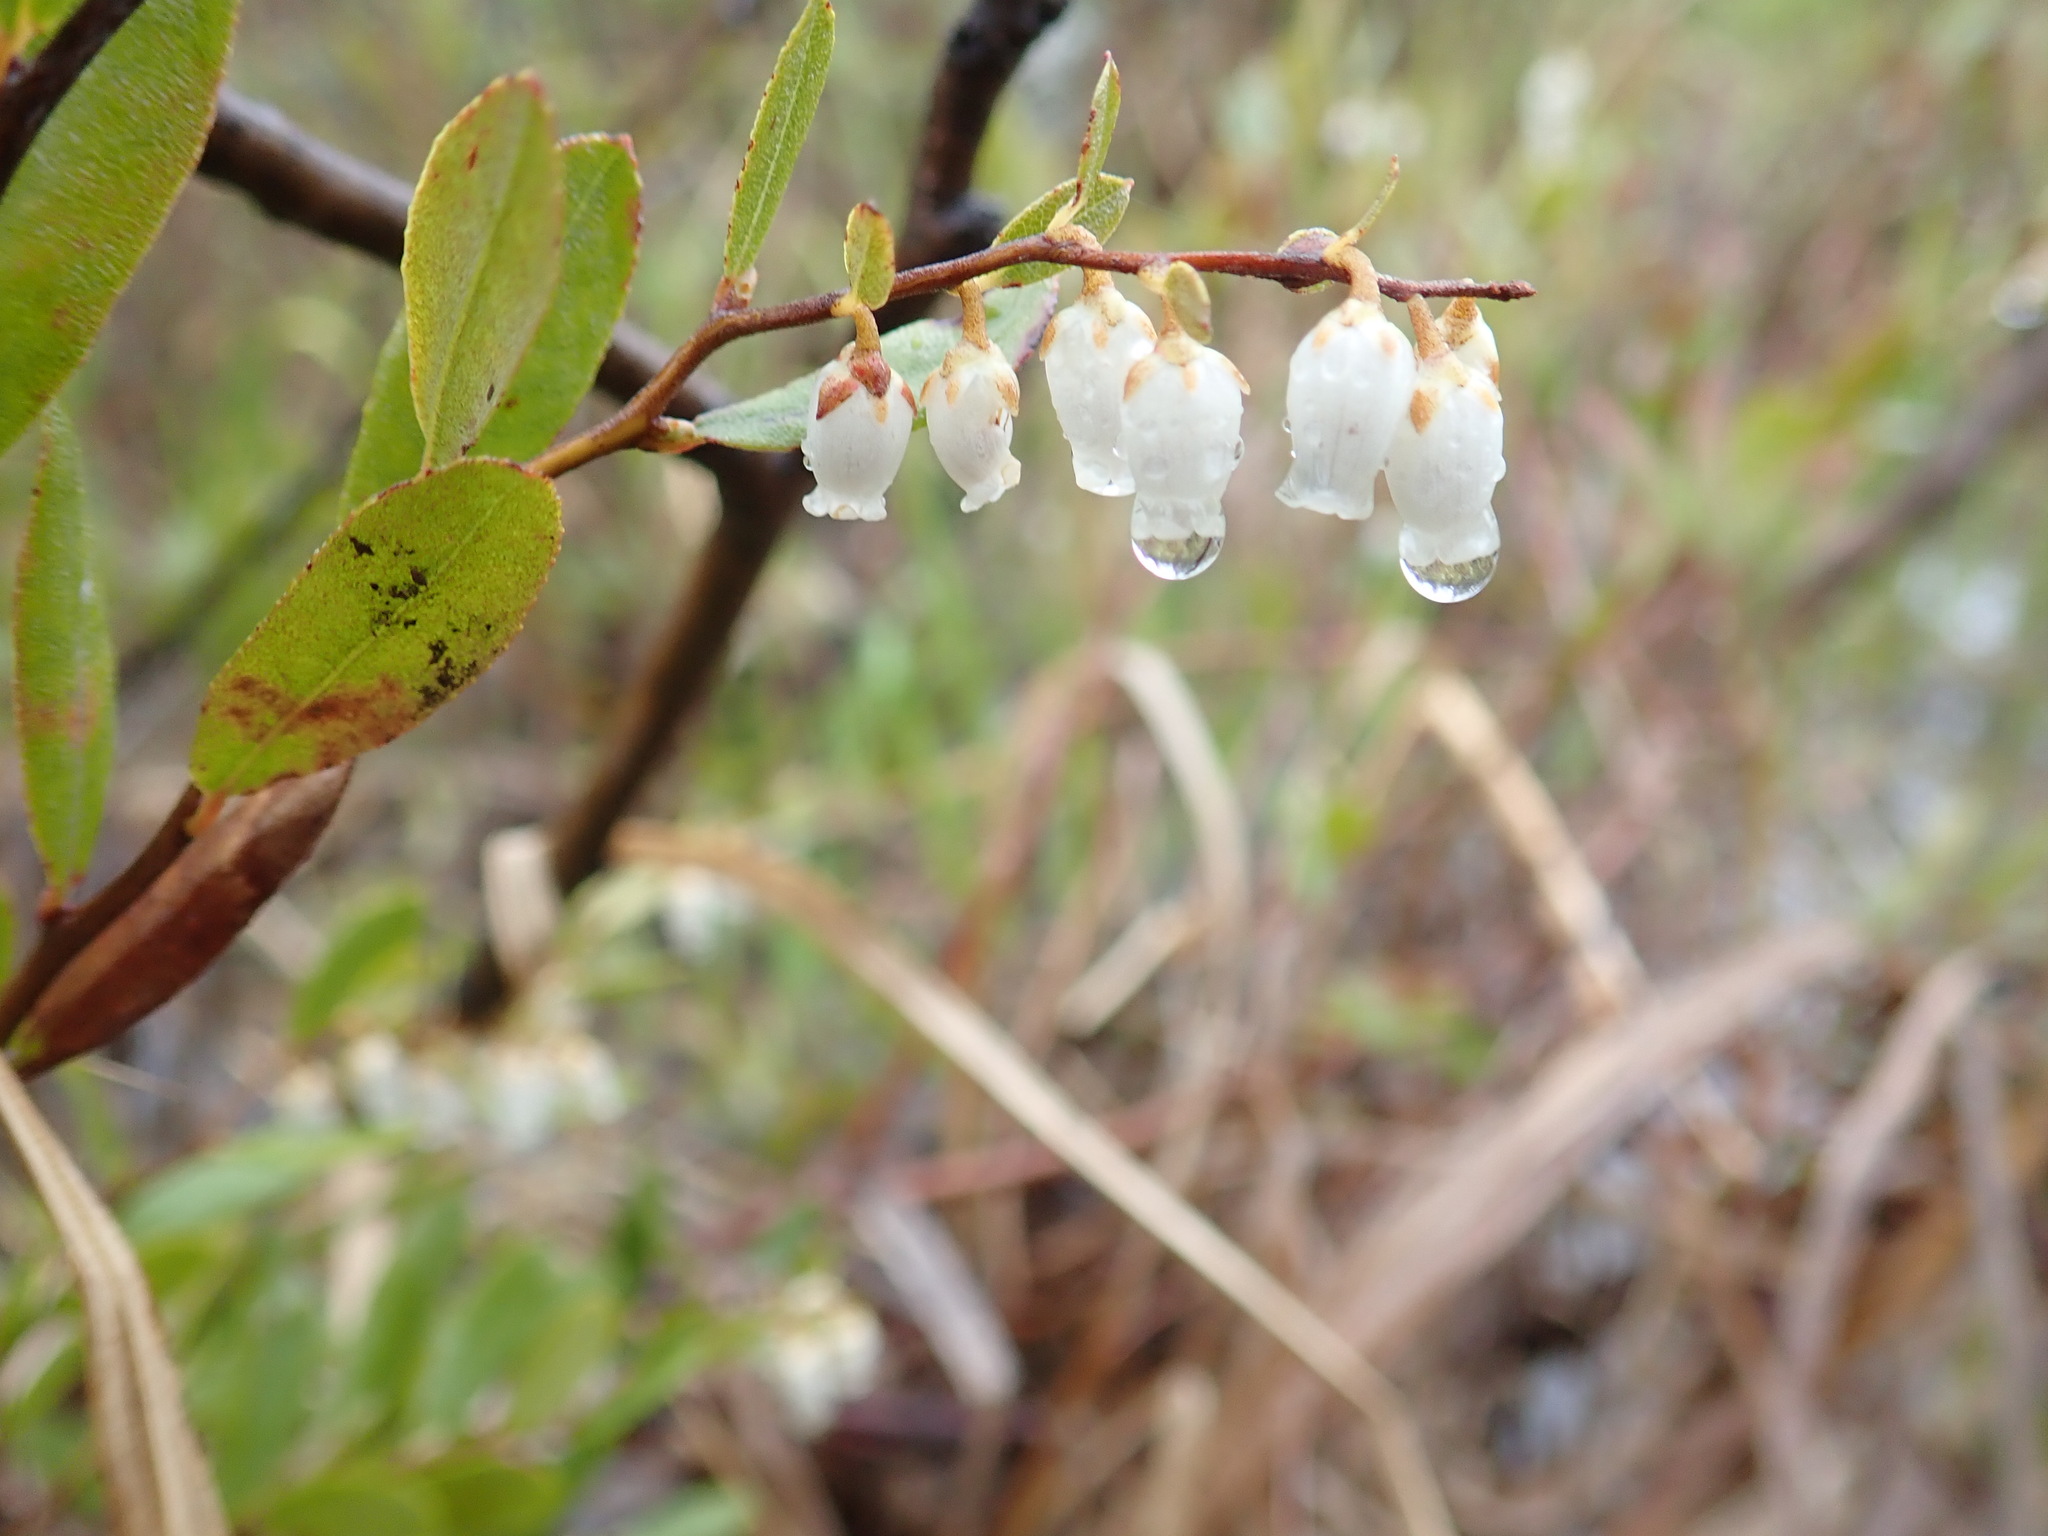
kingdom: Plantae
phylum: Tracheophyta
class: Magnoliopsida
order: Ericales
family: Ericaceae
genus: Chamaedaphne
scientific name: Chamaedaphne calyculata
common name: Leatherleaf
